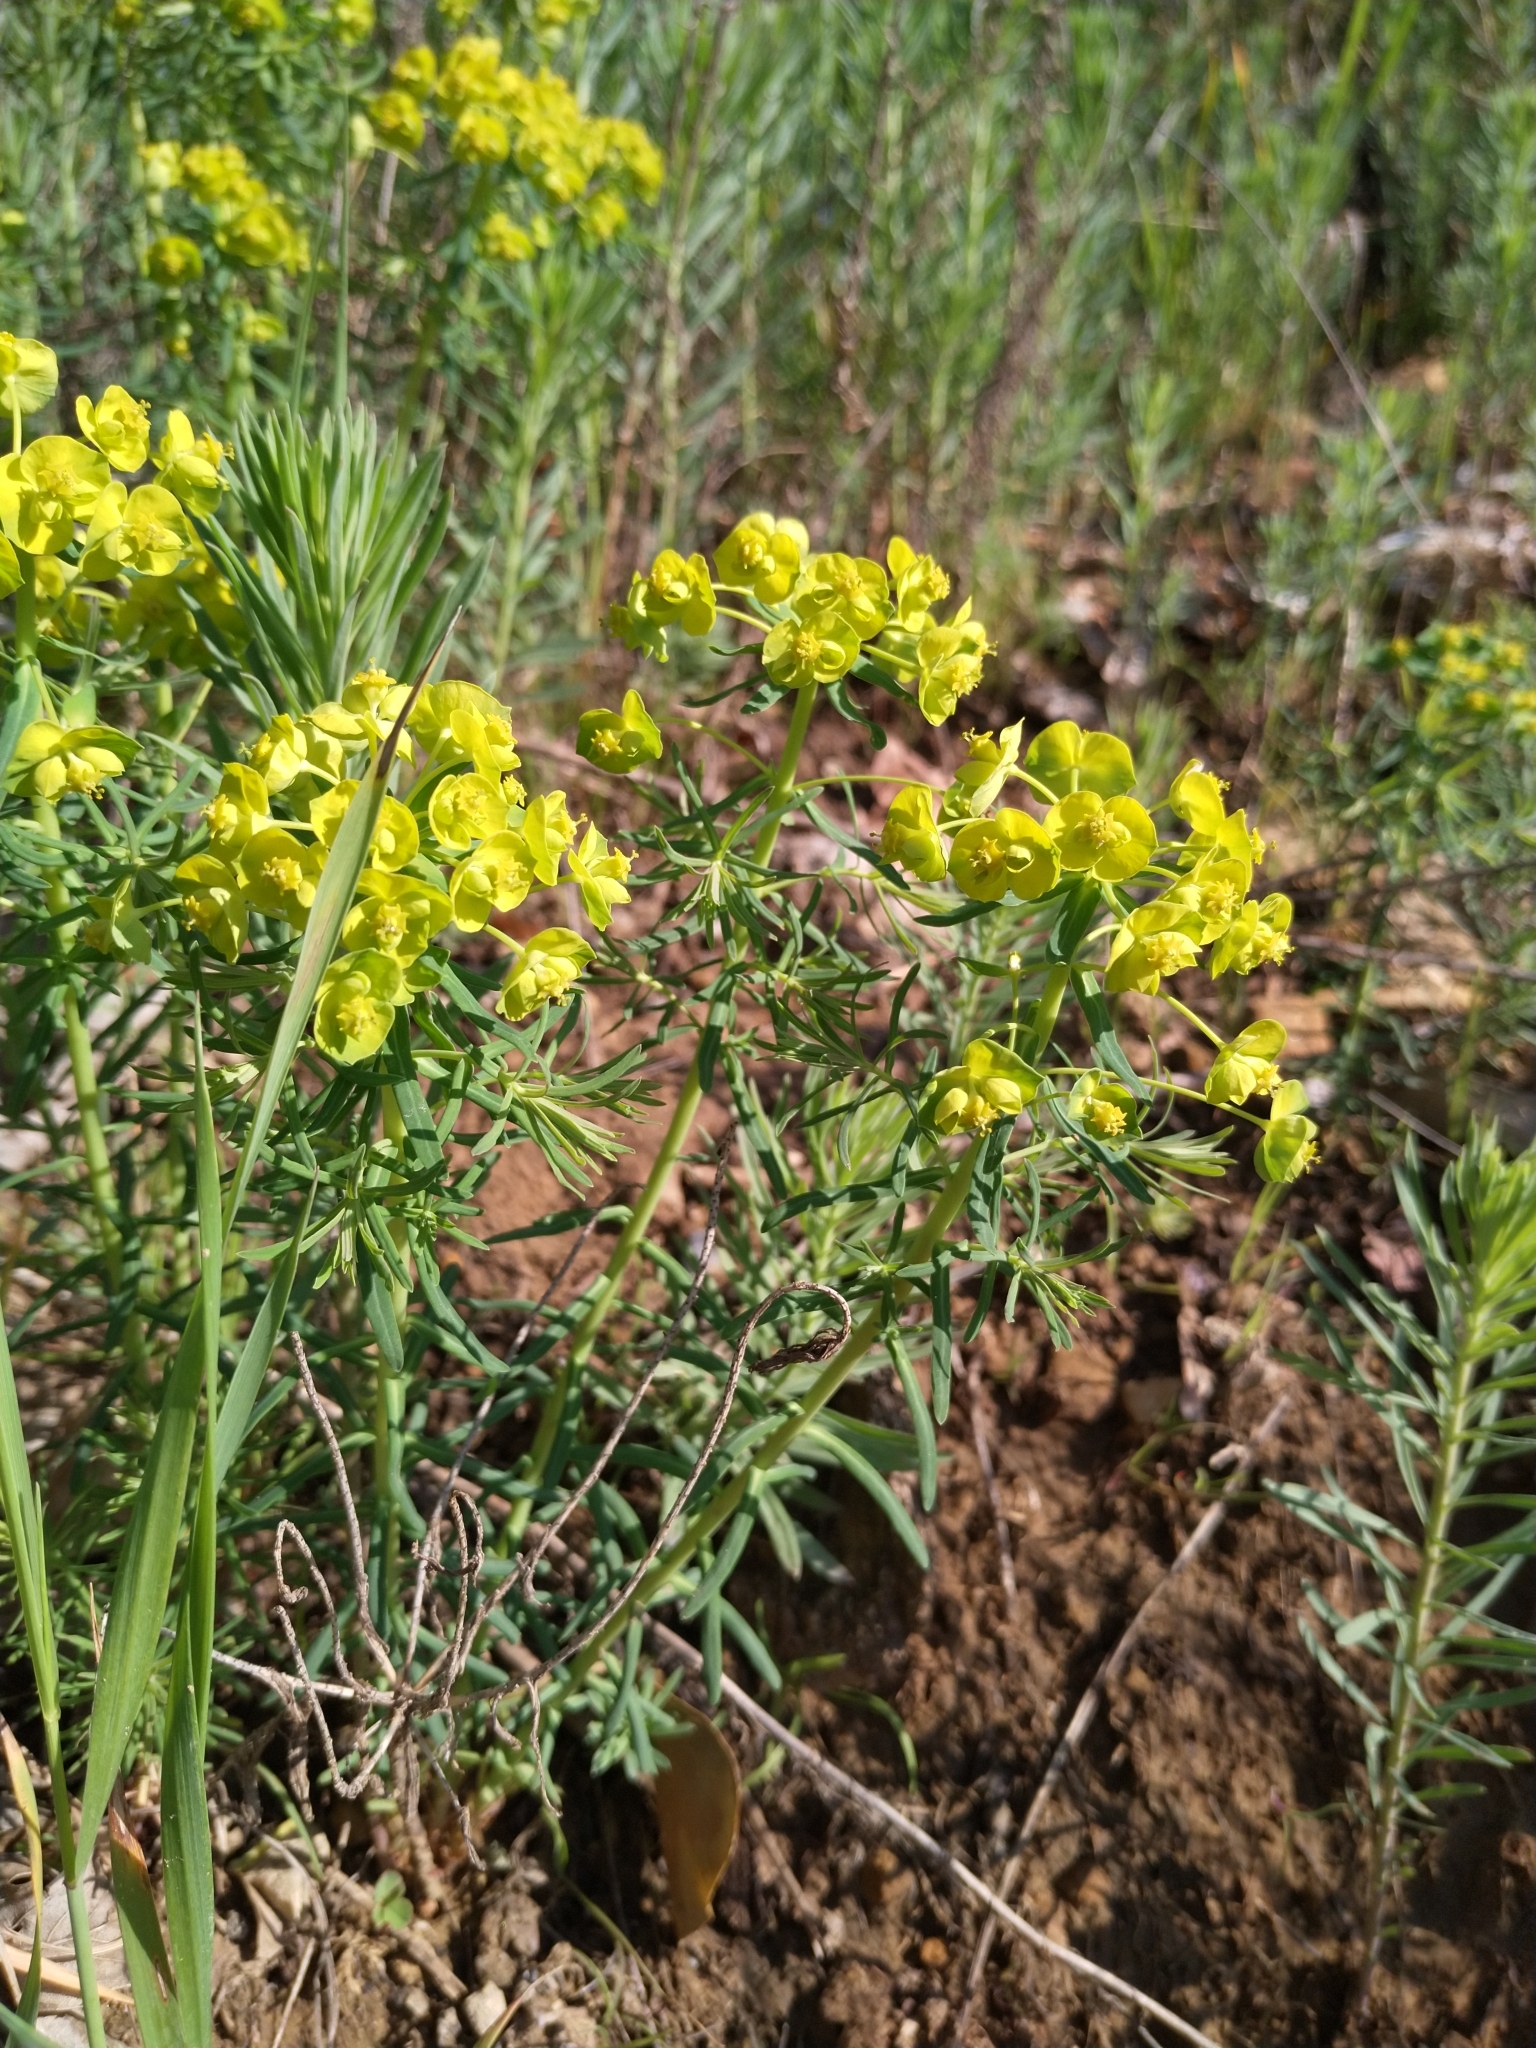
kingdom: Plantae
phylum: Tracheophyta
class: Magnoliopsida
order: Malpighiales
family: Euphorbiaceae
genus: Euphorbia
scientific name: Euphorbia cyparissias
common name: Cypress spurge
